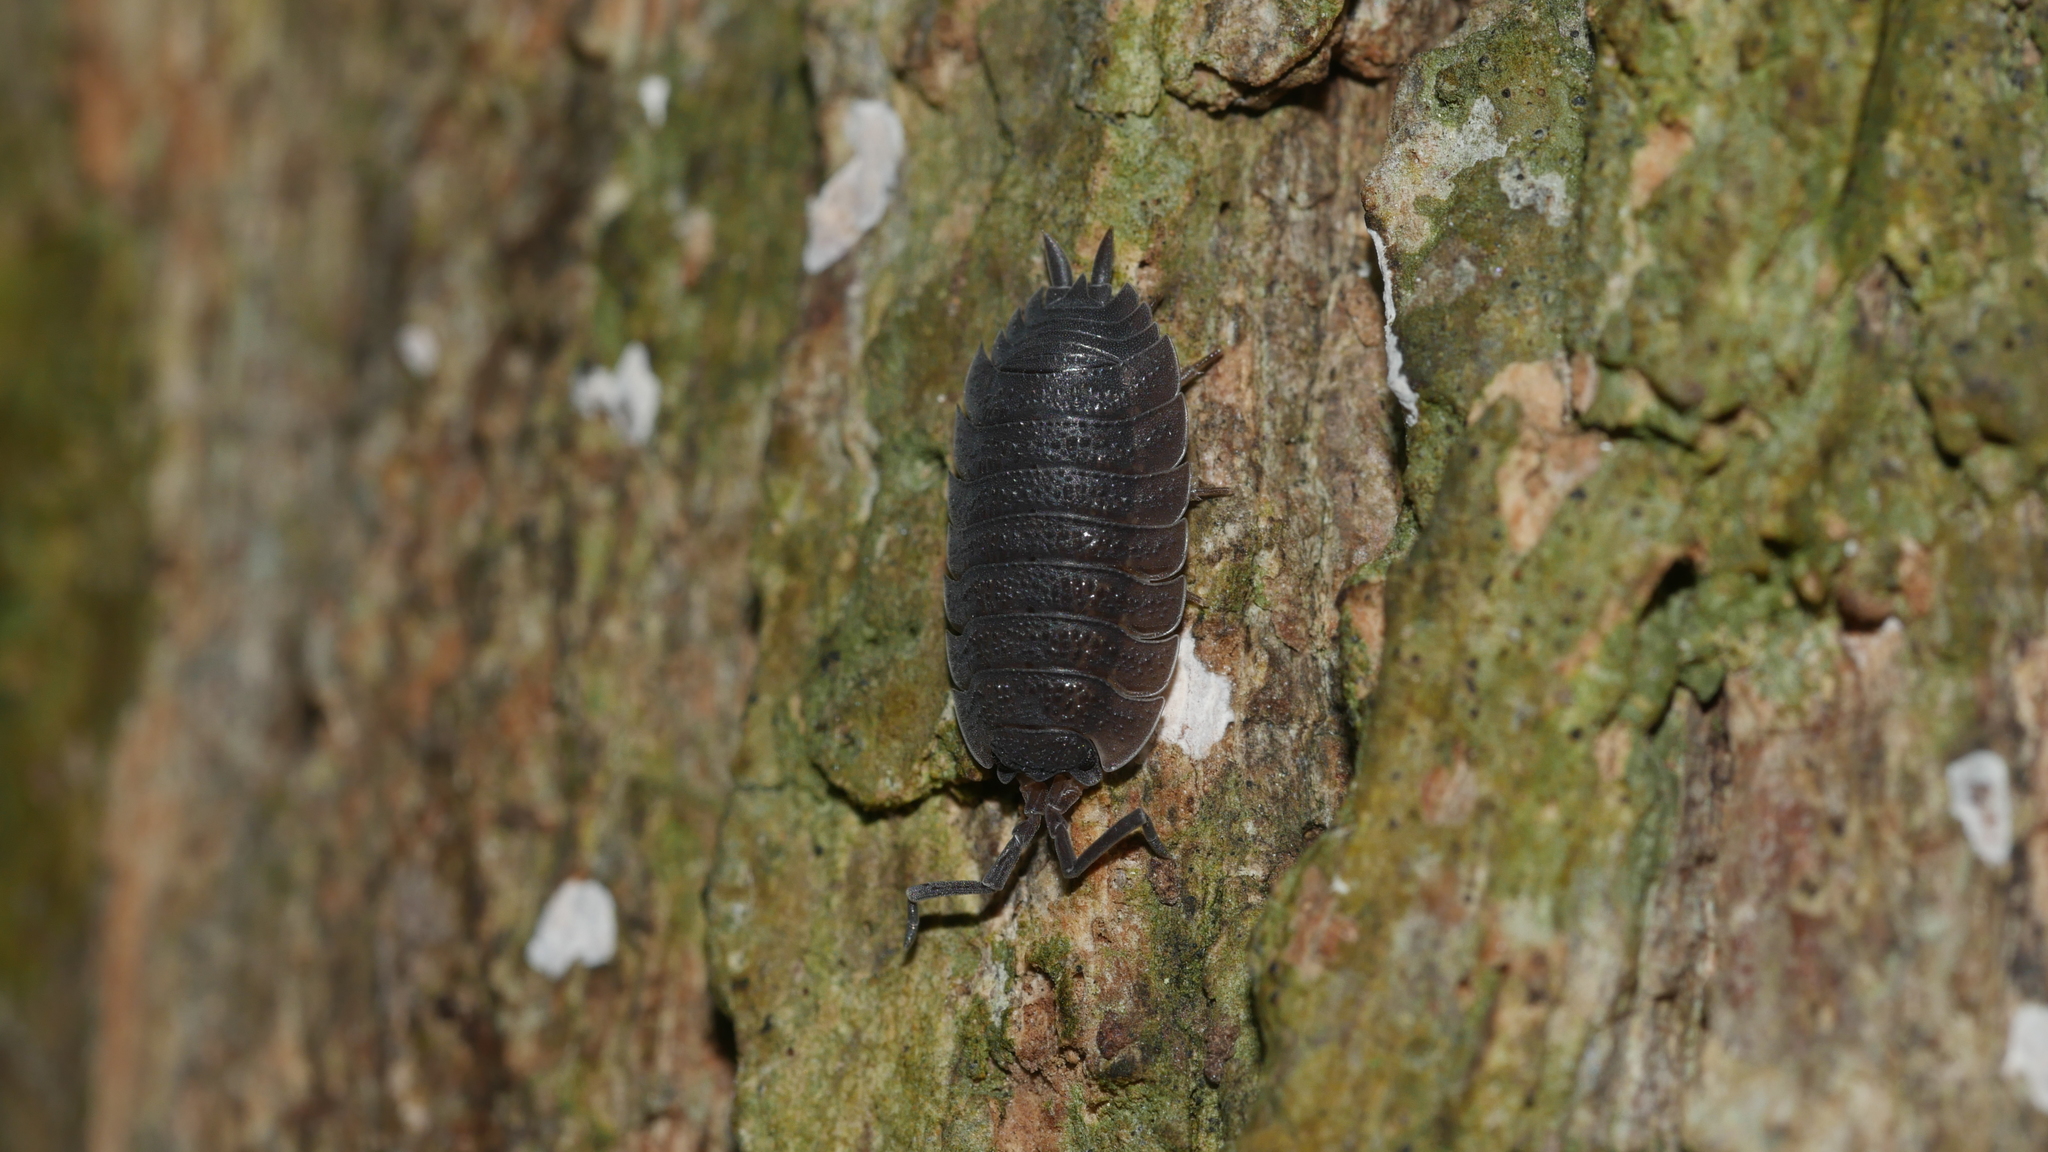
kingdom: Animalia
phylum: Arthropoda
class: Malacostraca
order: Isopoda
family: Porcellionidae
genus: Porcellio
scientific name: Porcellio scaber
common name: Common rough woodlouse
